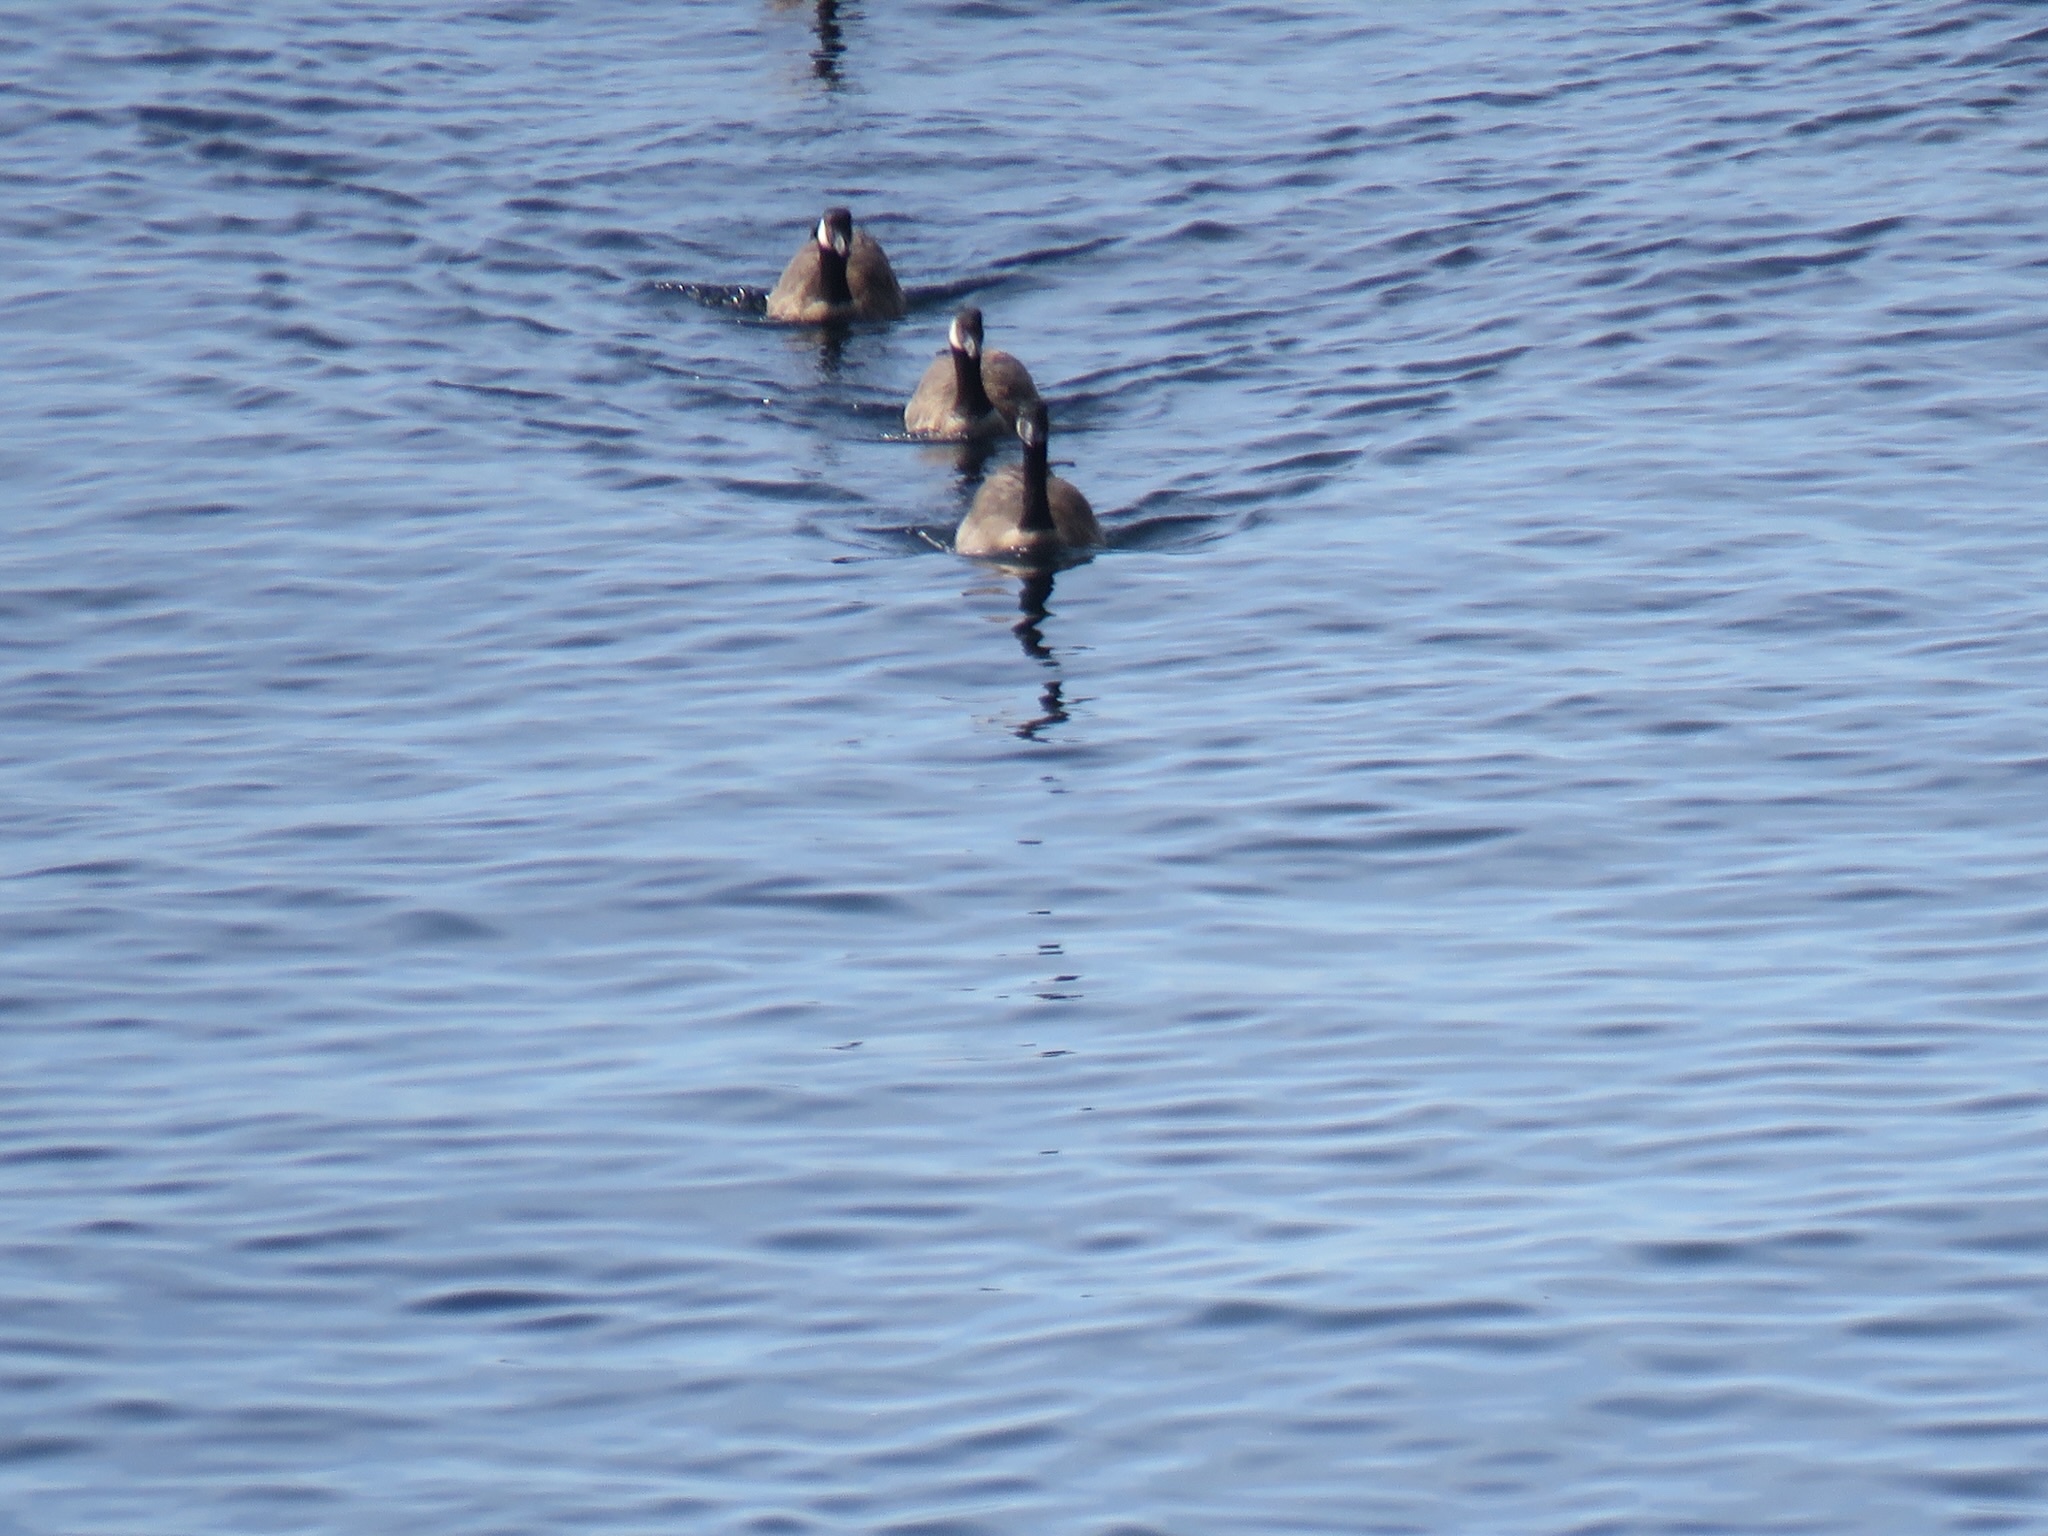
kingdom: Animalia
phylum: Chordata
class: Aves
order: Anseriformes
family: Anatidae
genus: Branta
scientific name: Branta canadensis
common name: Canada goose
